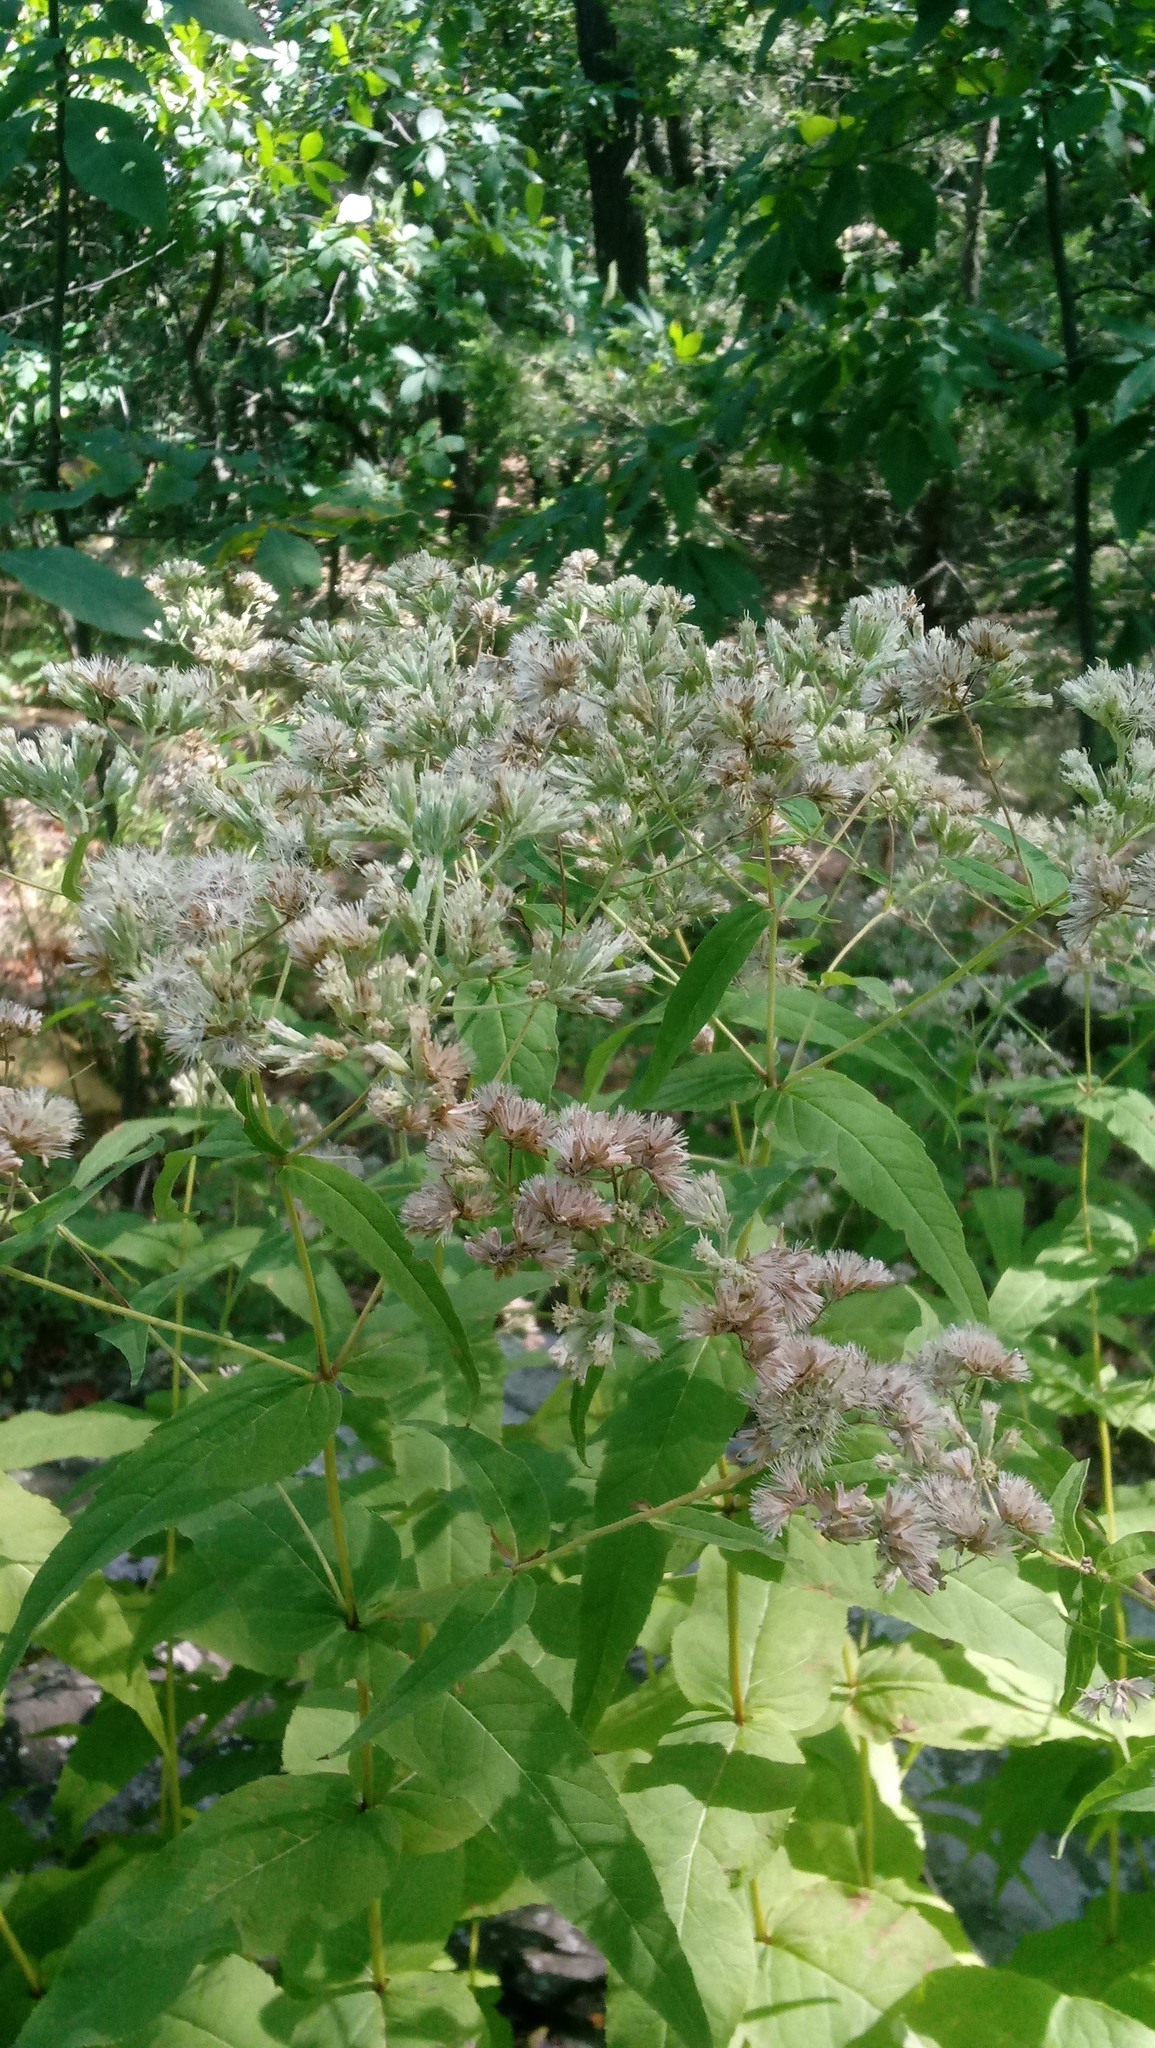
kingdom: Plantae
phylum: Tracheophyta
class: Magnoliopsida
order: Asterales
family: Asteraceae
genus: Eupatorium
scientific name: Eupatorium sessilifolium
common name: Upland boneset
